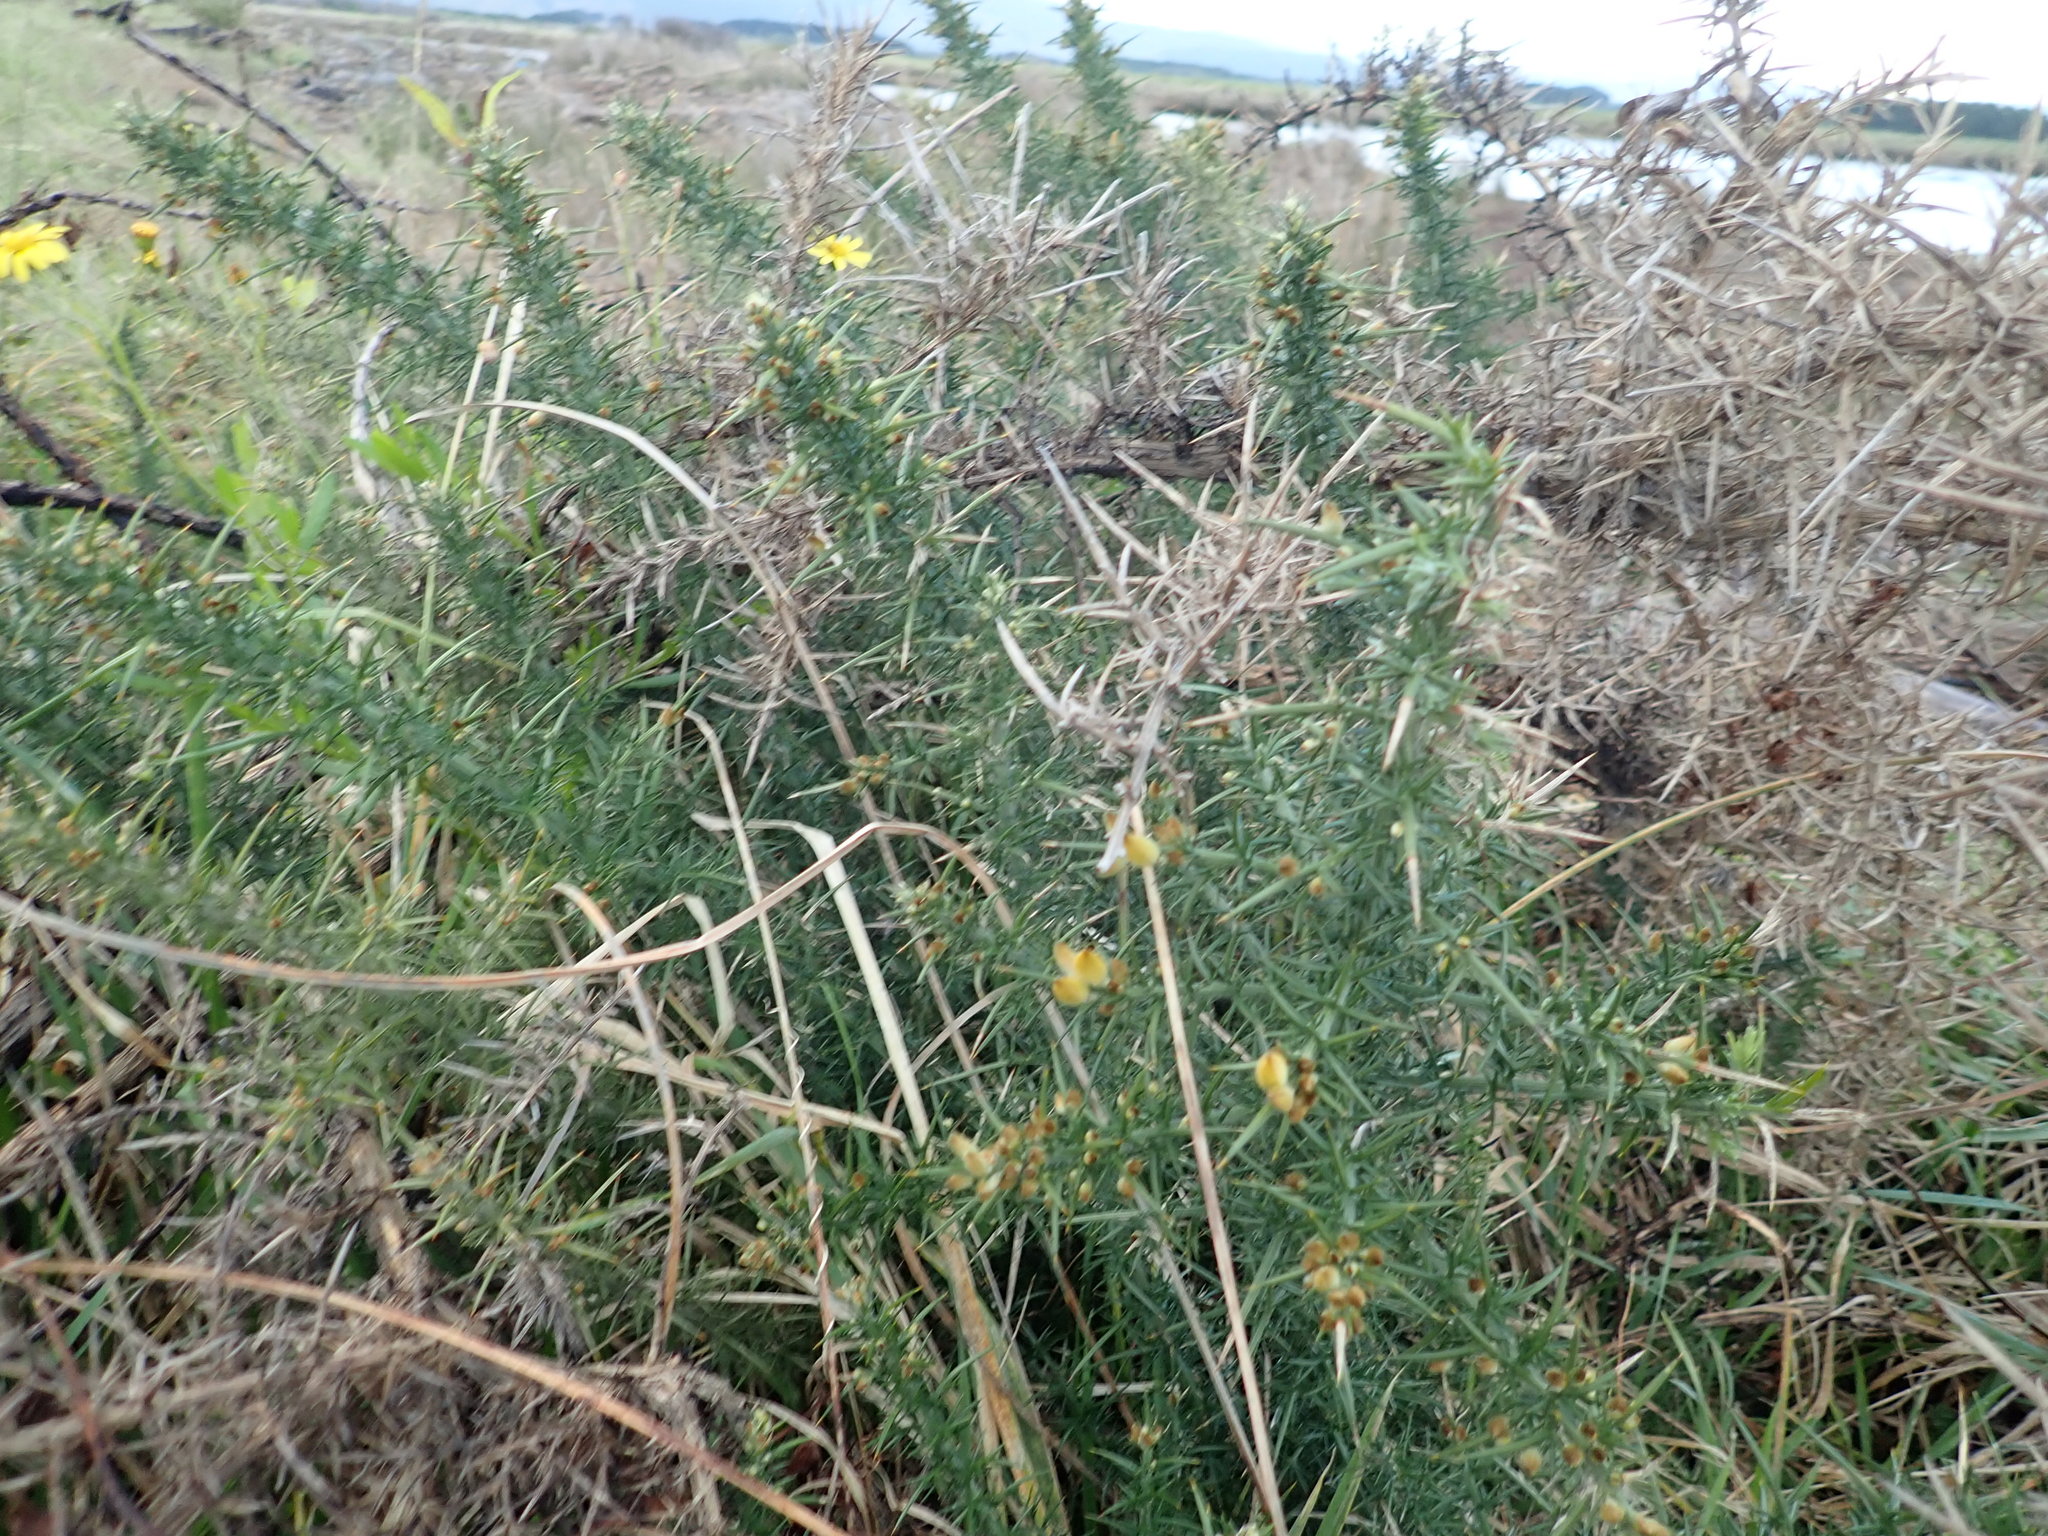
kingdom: Plantae
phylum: Tracheophyta
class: Magnoliopsida
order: Fabales
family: Fabaceae
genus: Ulex
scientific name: Ulex europaeus
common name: Common gorse
